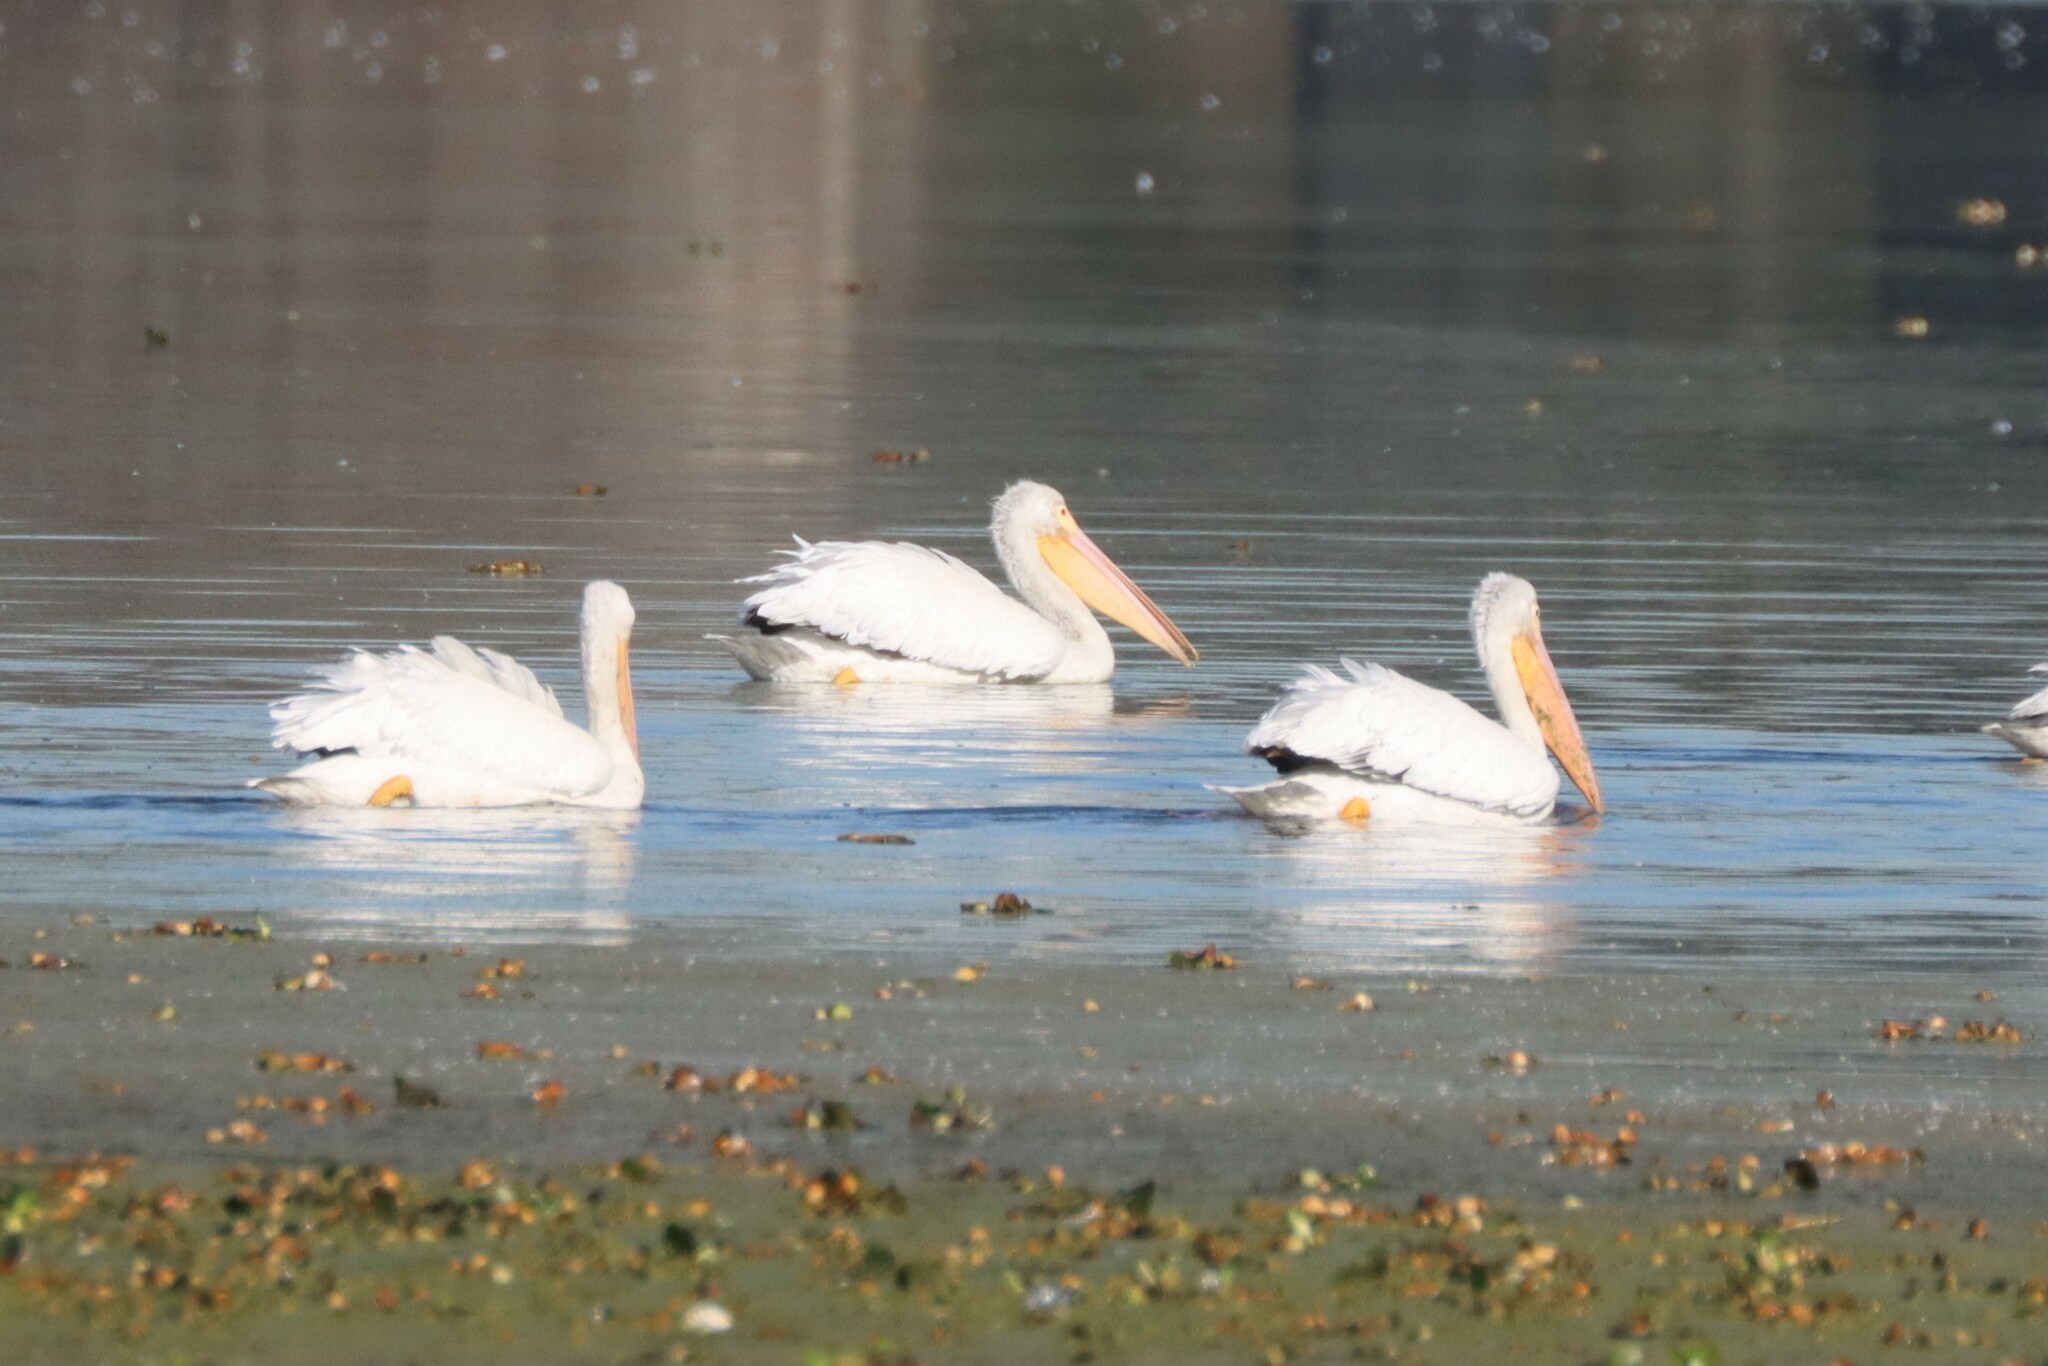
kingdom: Animalia
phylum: Chordata
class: Aves
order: Pelecaniformes
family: Pelecanidae
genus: Pelecanus
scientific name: Pelecanus erythrorhynchos
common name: American white pelican
